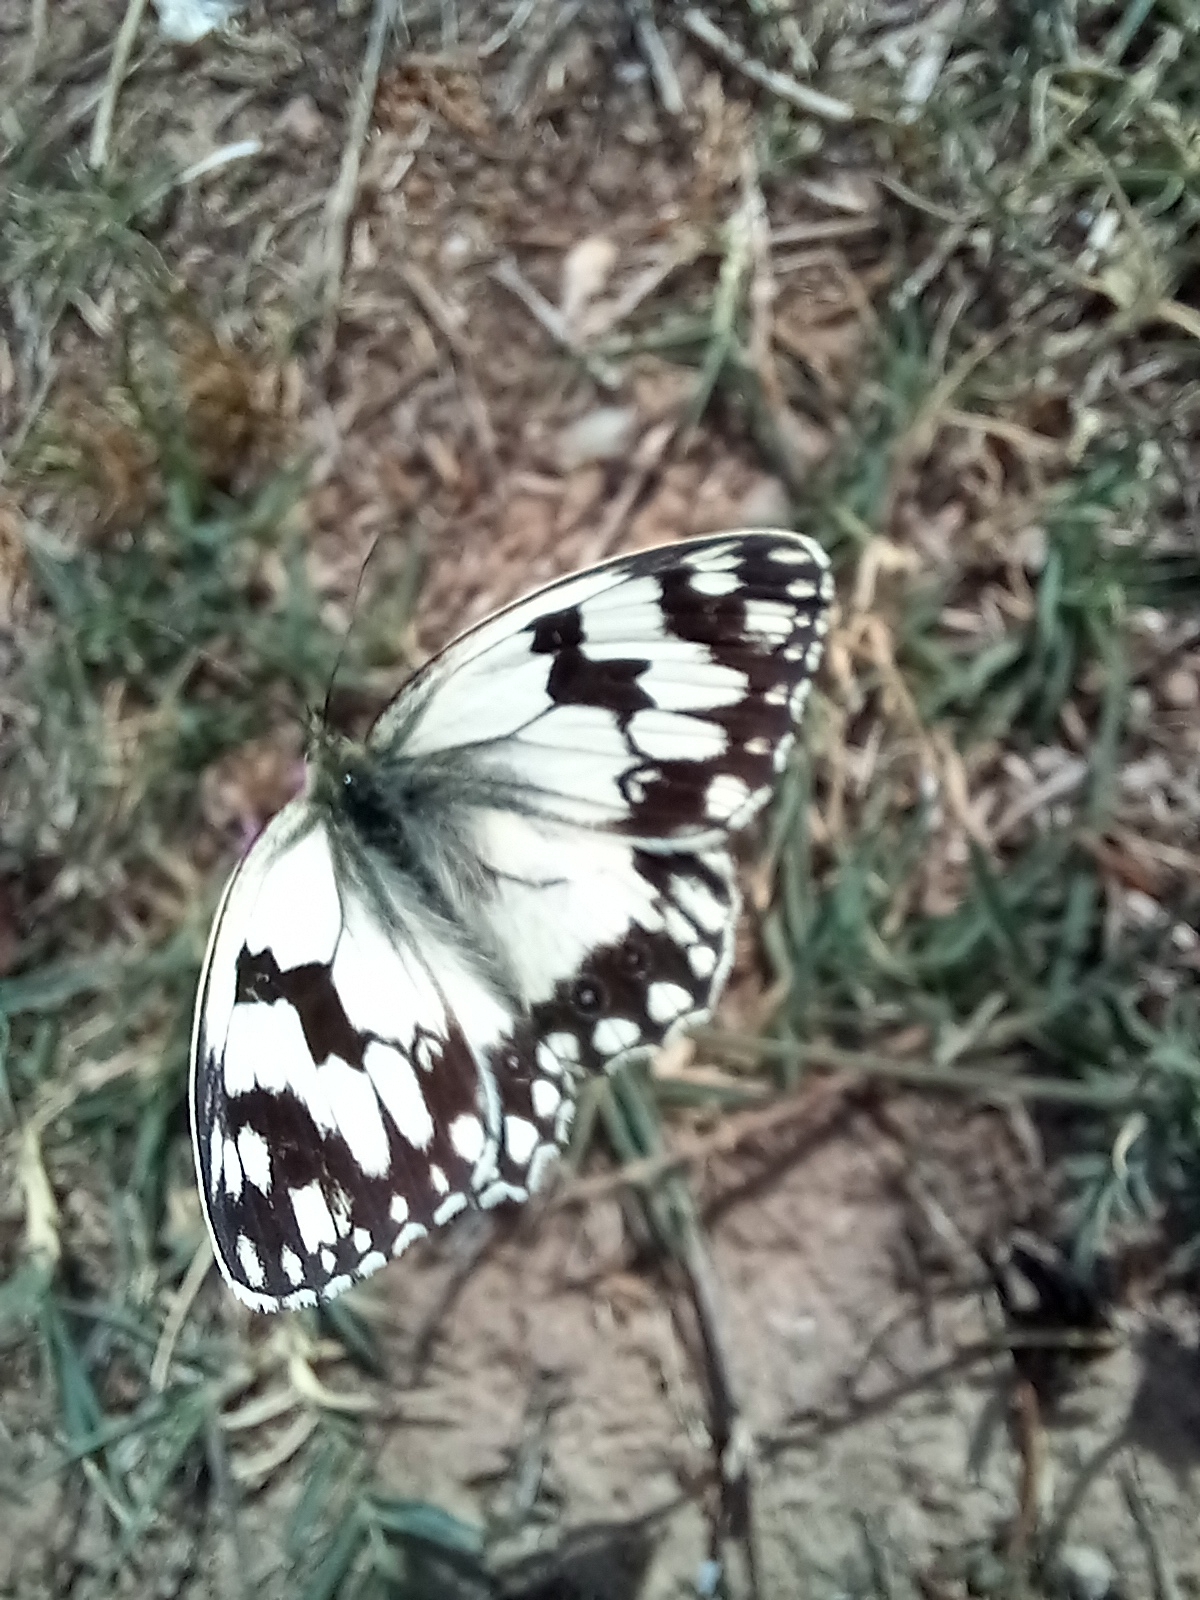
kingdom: Animalia
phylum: Arthropoda
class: Insecta
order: Lepidoptera
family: Nymphalidae
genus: Melanargia
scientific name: Melanargia lachesis
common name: Iberian marbled white
